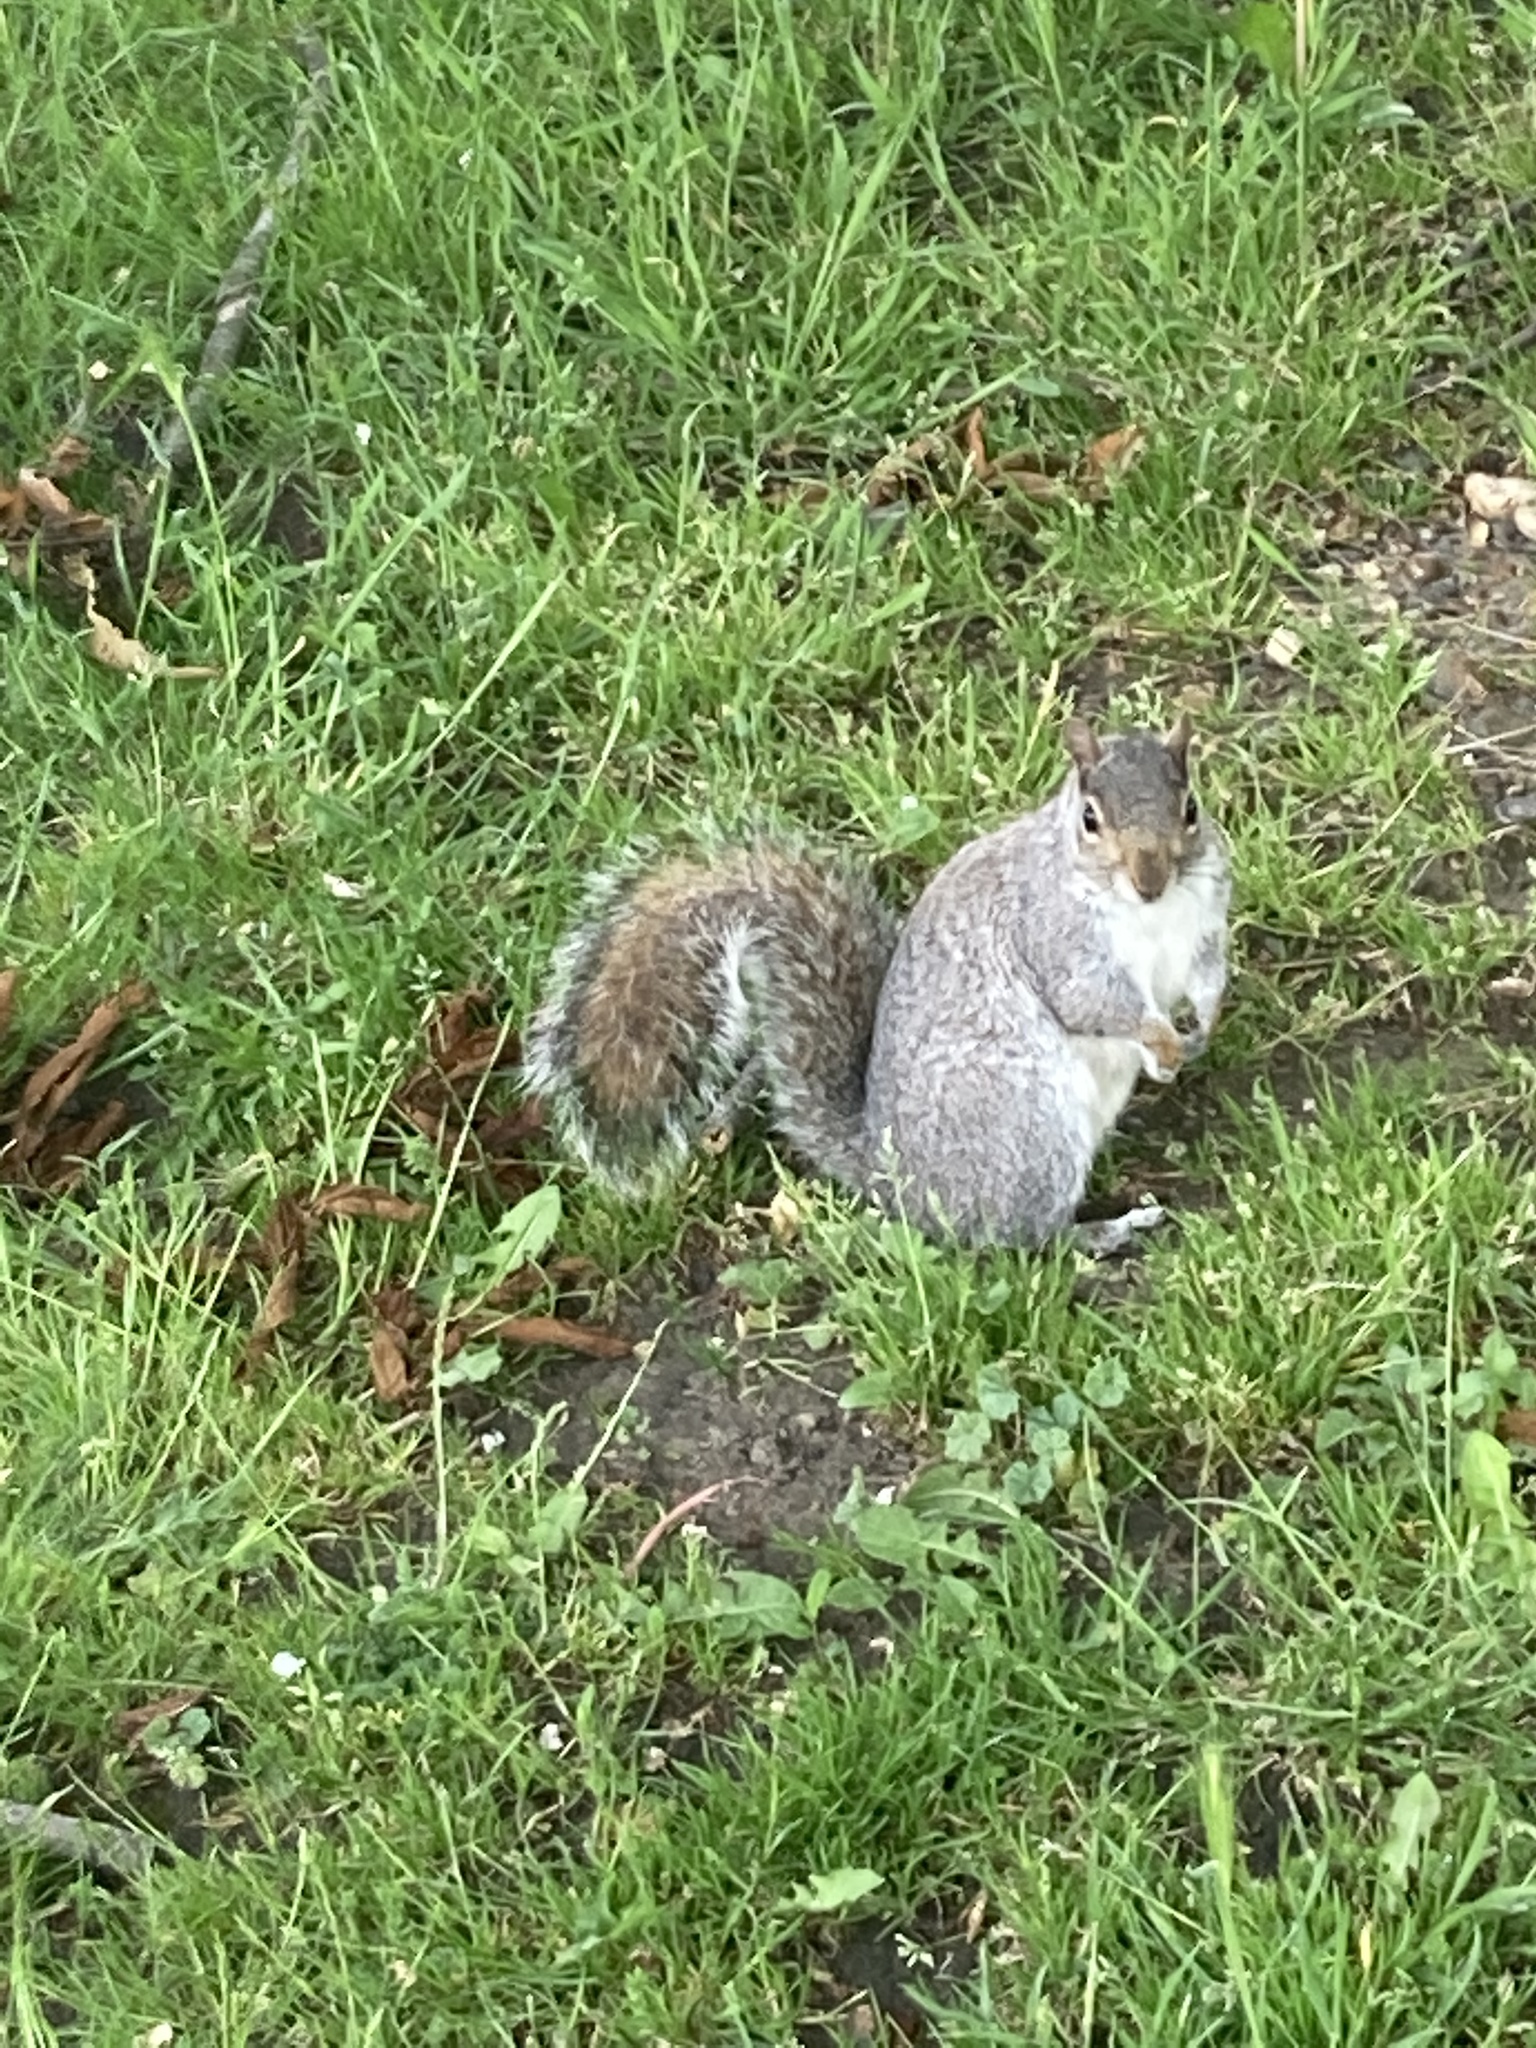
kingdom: Animalia
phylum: Chordata
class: Mammalia
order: Rodentia
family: Sciuridae
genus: Sciurus
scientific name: Sciurus carolinensis
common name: Eastern gray squirrel
